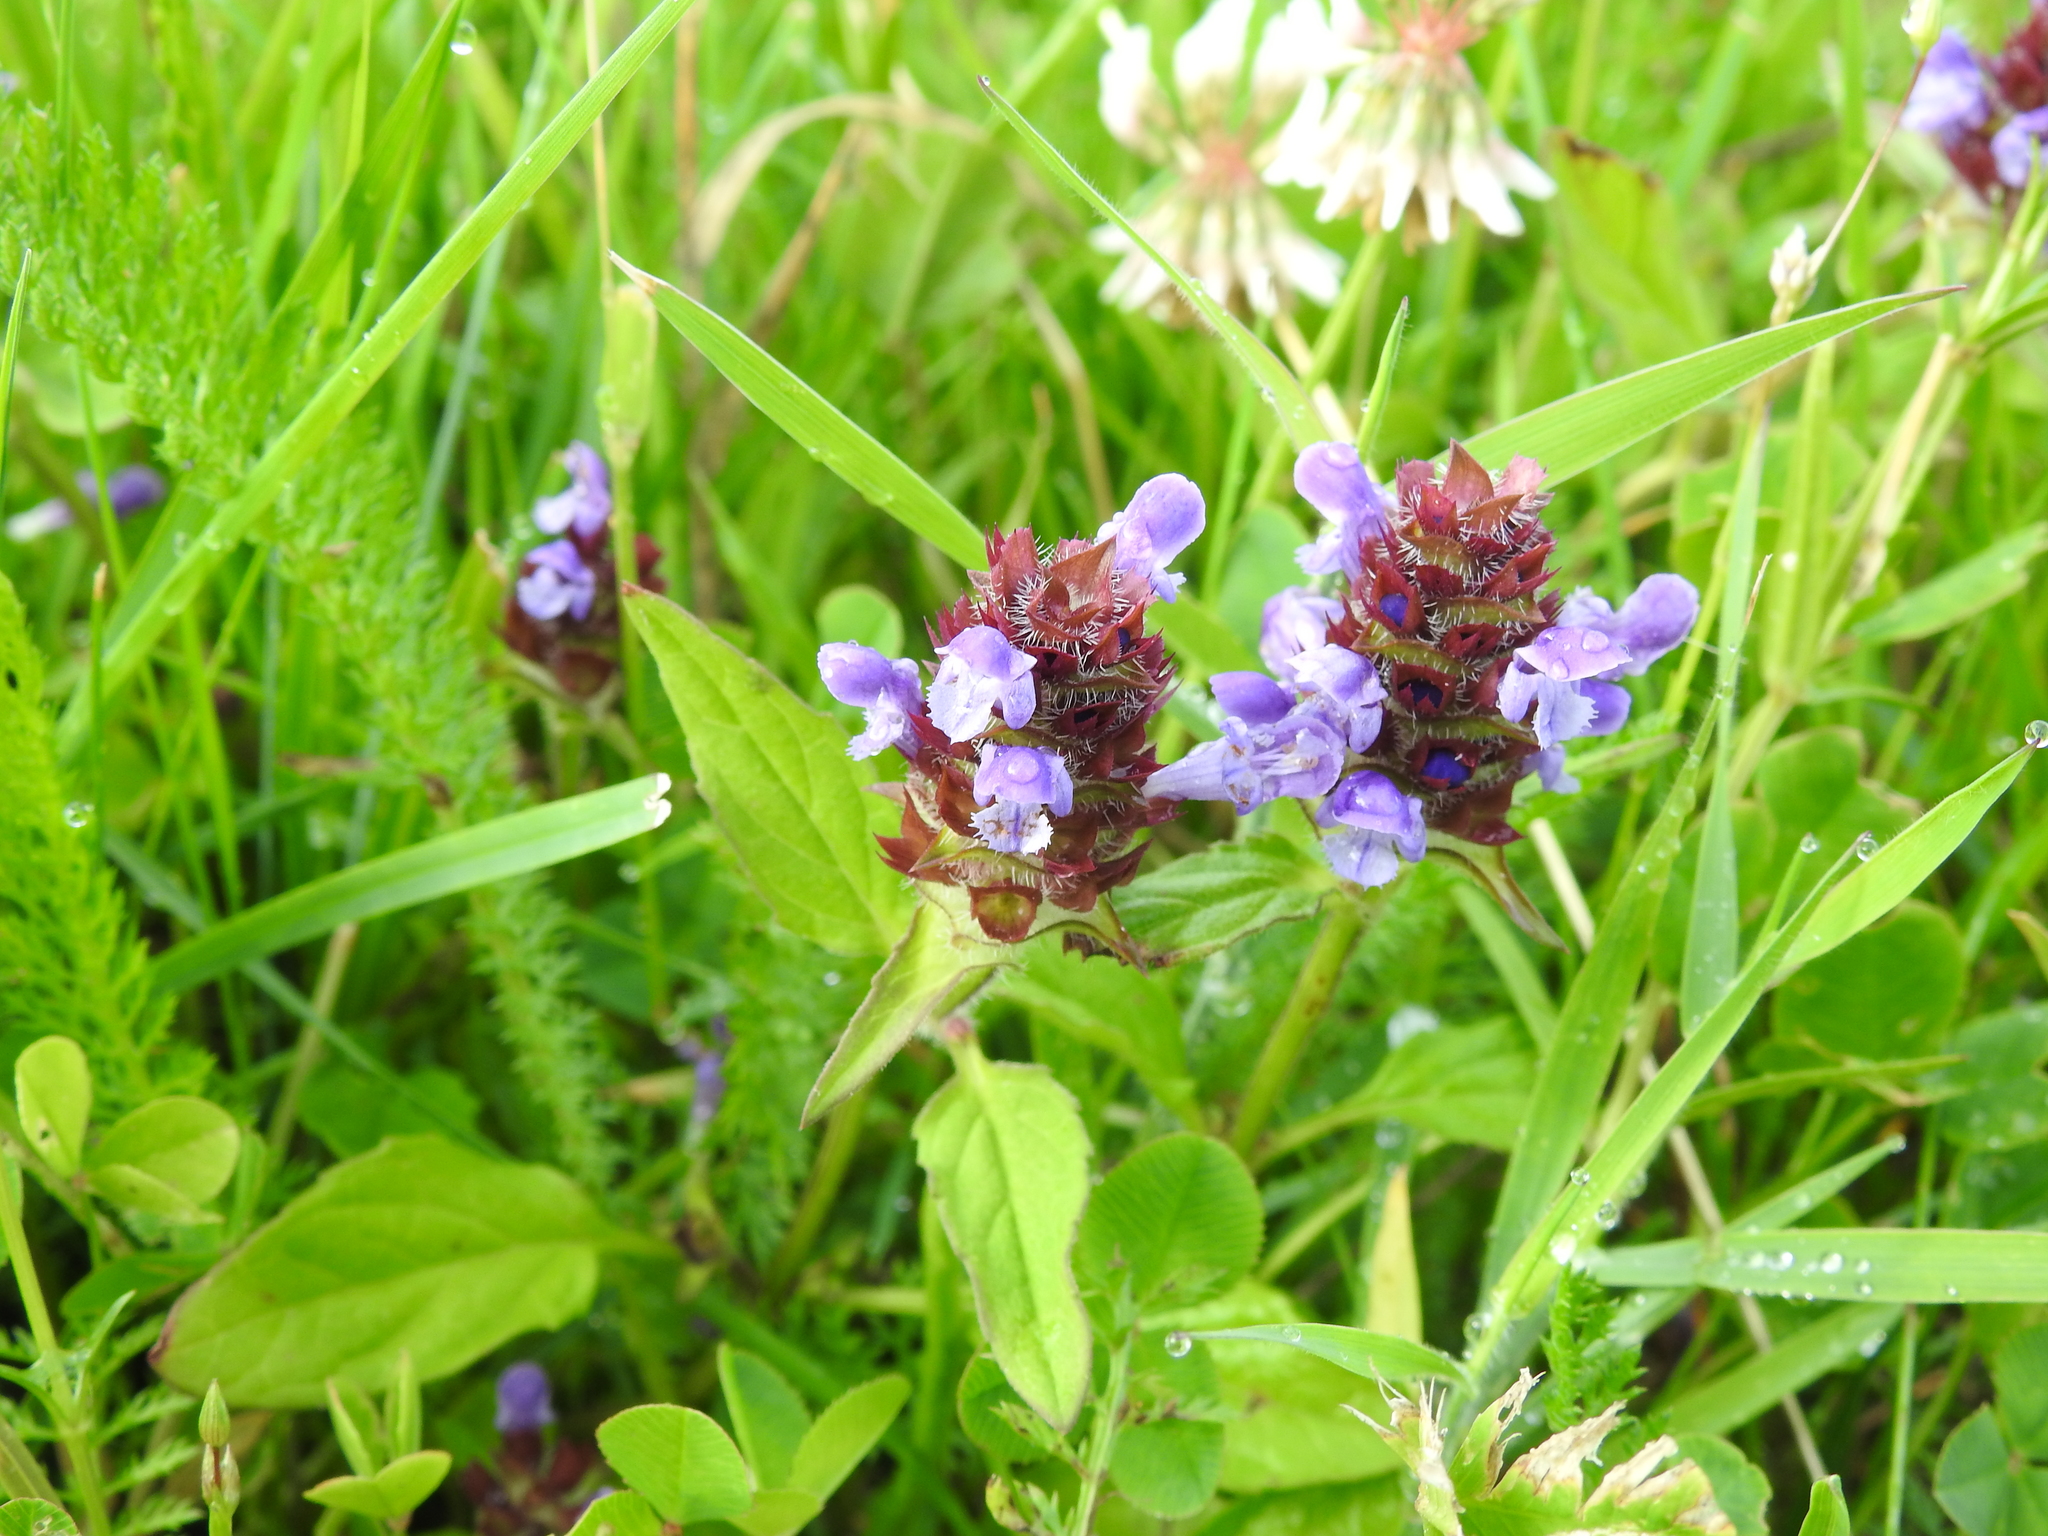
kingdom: Plantae
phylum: Tracheophyta
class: Magnoliopsida
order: Lamiales
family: Lamiaceae
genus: Prunella
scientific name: Prunella vulgaris
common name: Heal-all
